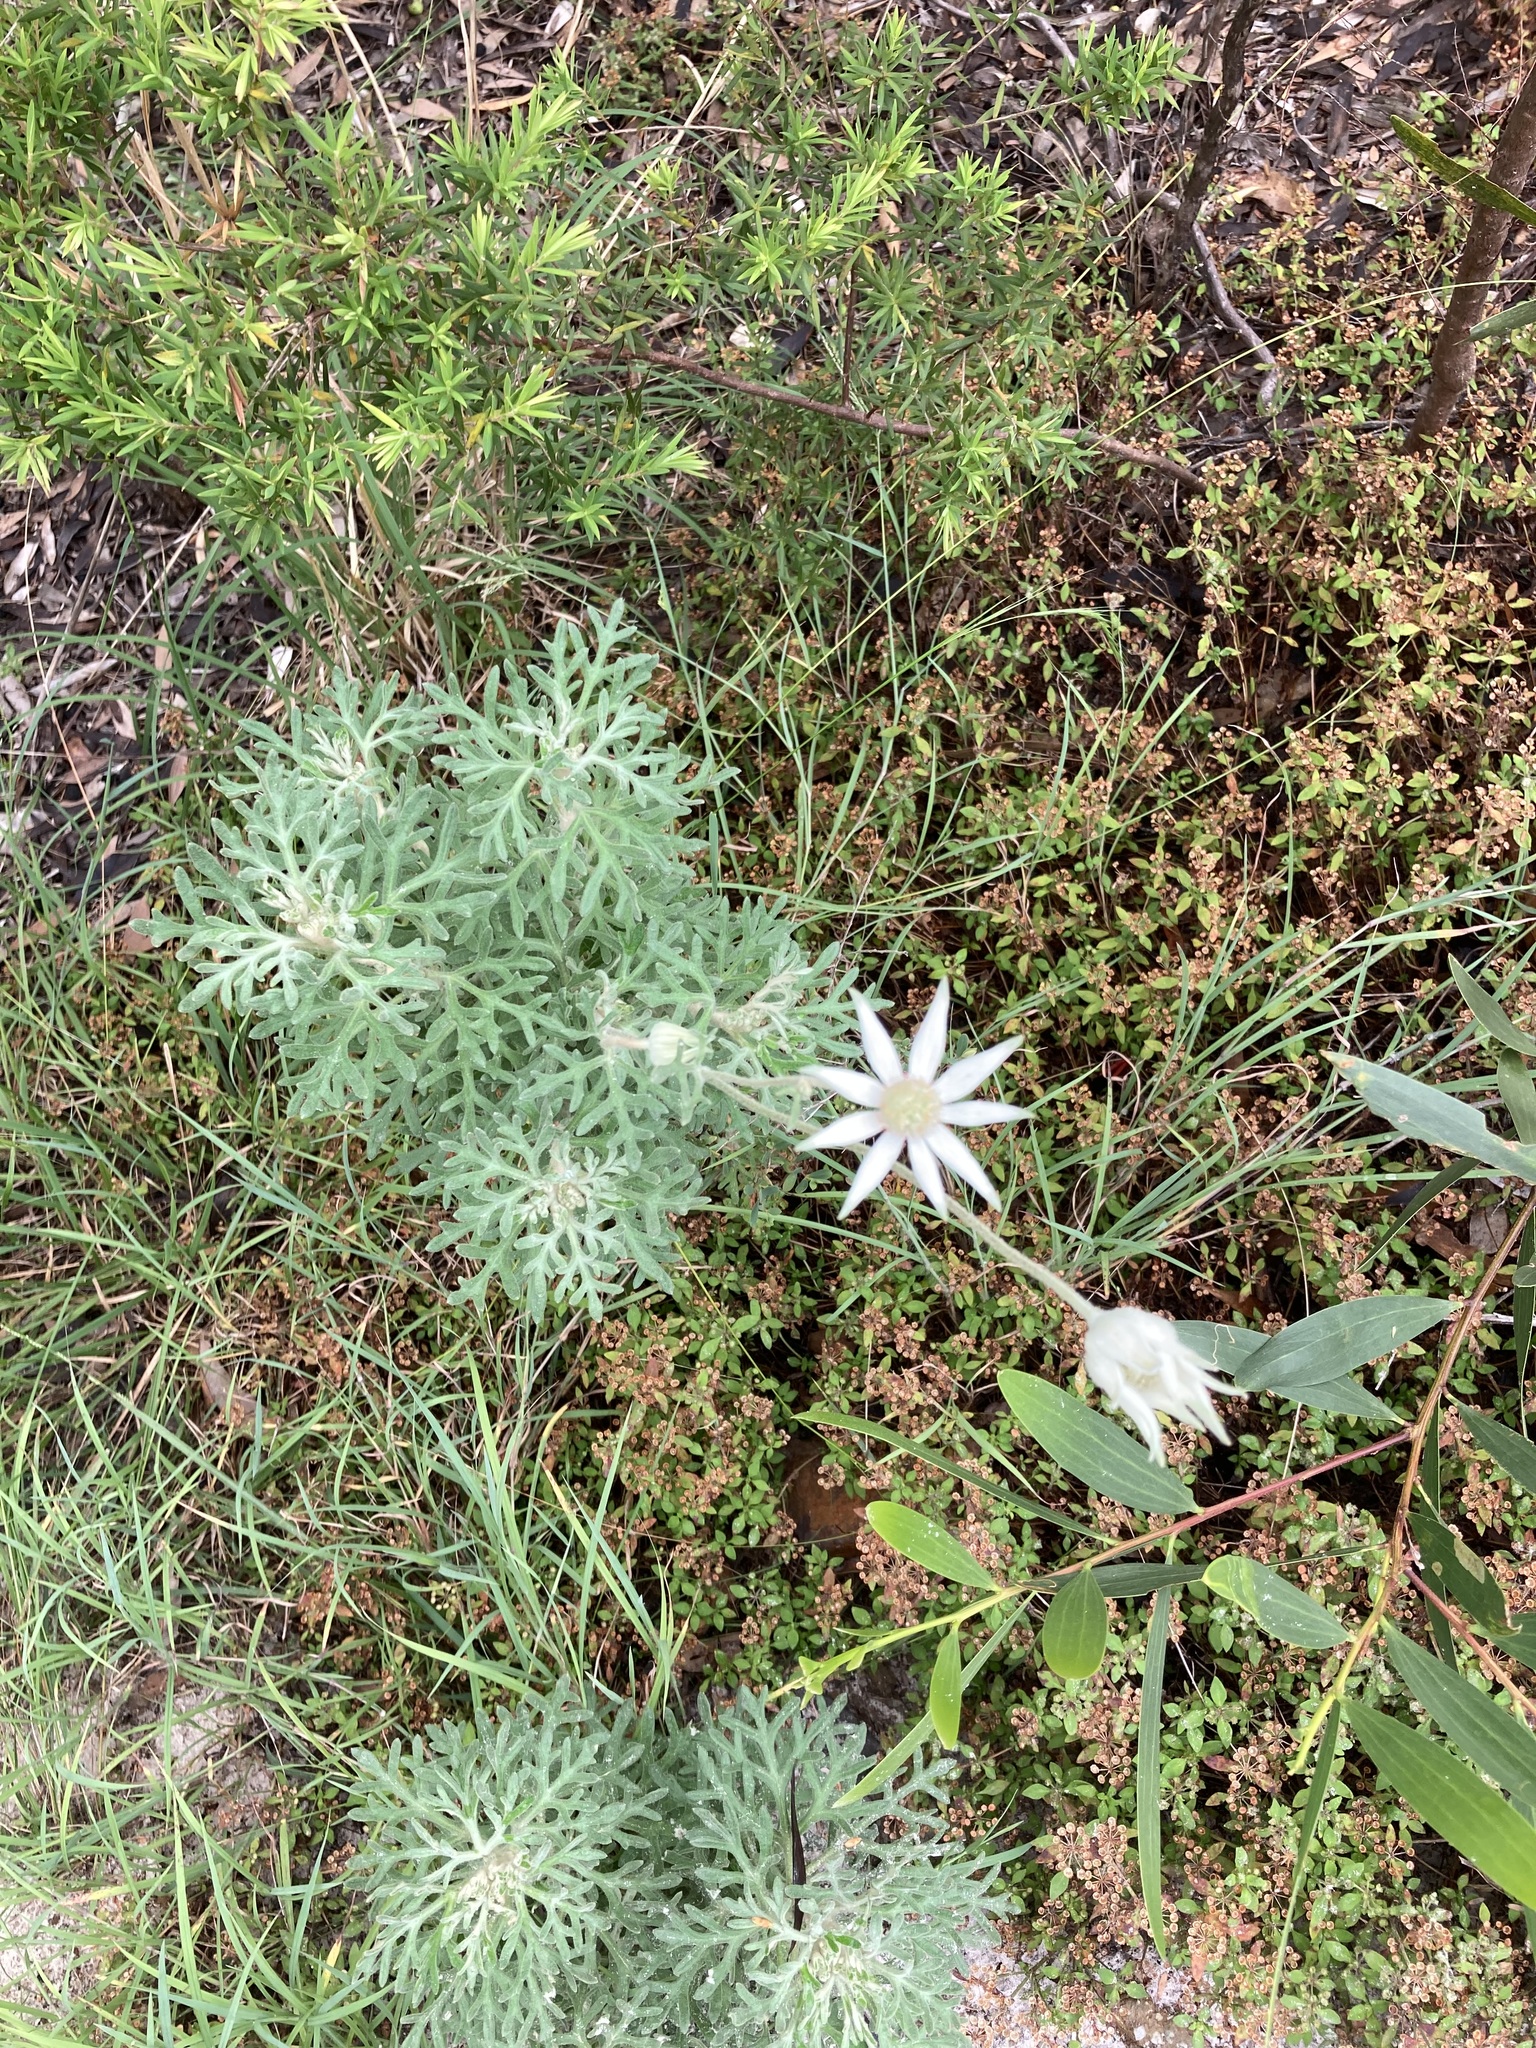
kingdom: Plantae
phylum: Tracheophyta
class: Magnoliopsida
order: Apiales
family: Apiaceae
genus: Actinotus
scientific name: Actinotus helianthi
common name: Flannel-flower
